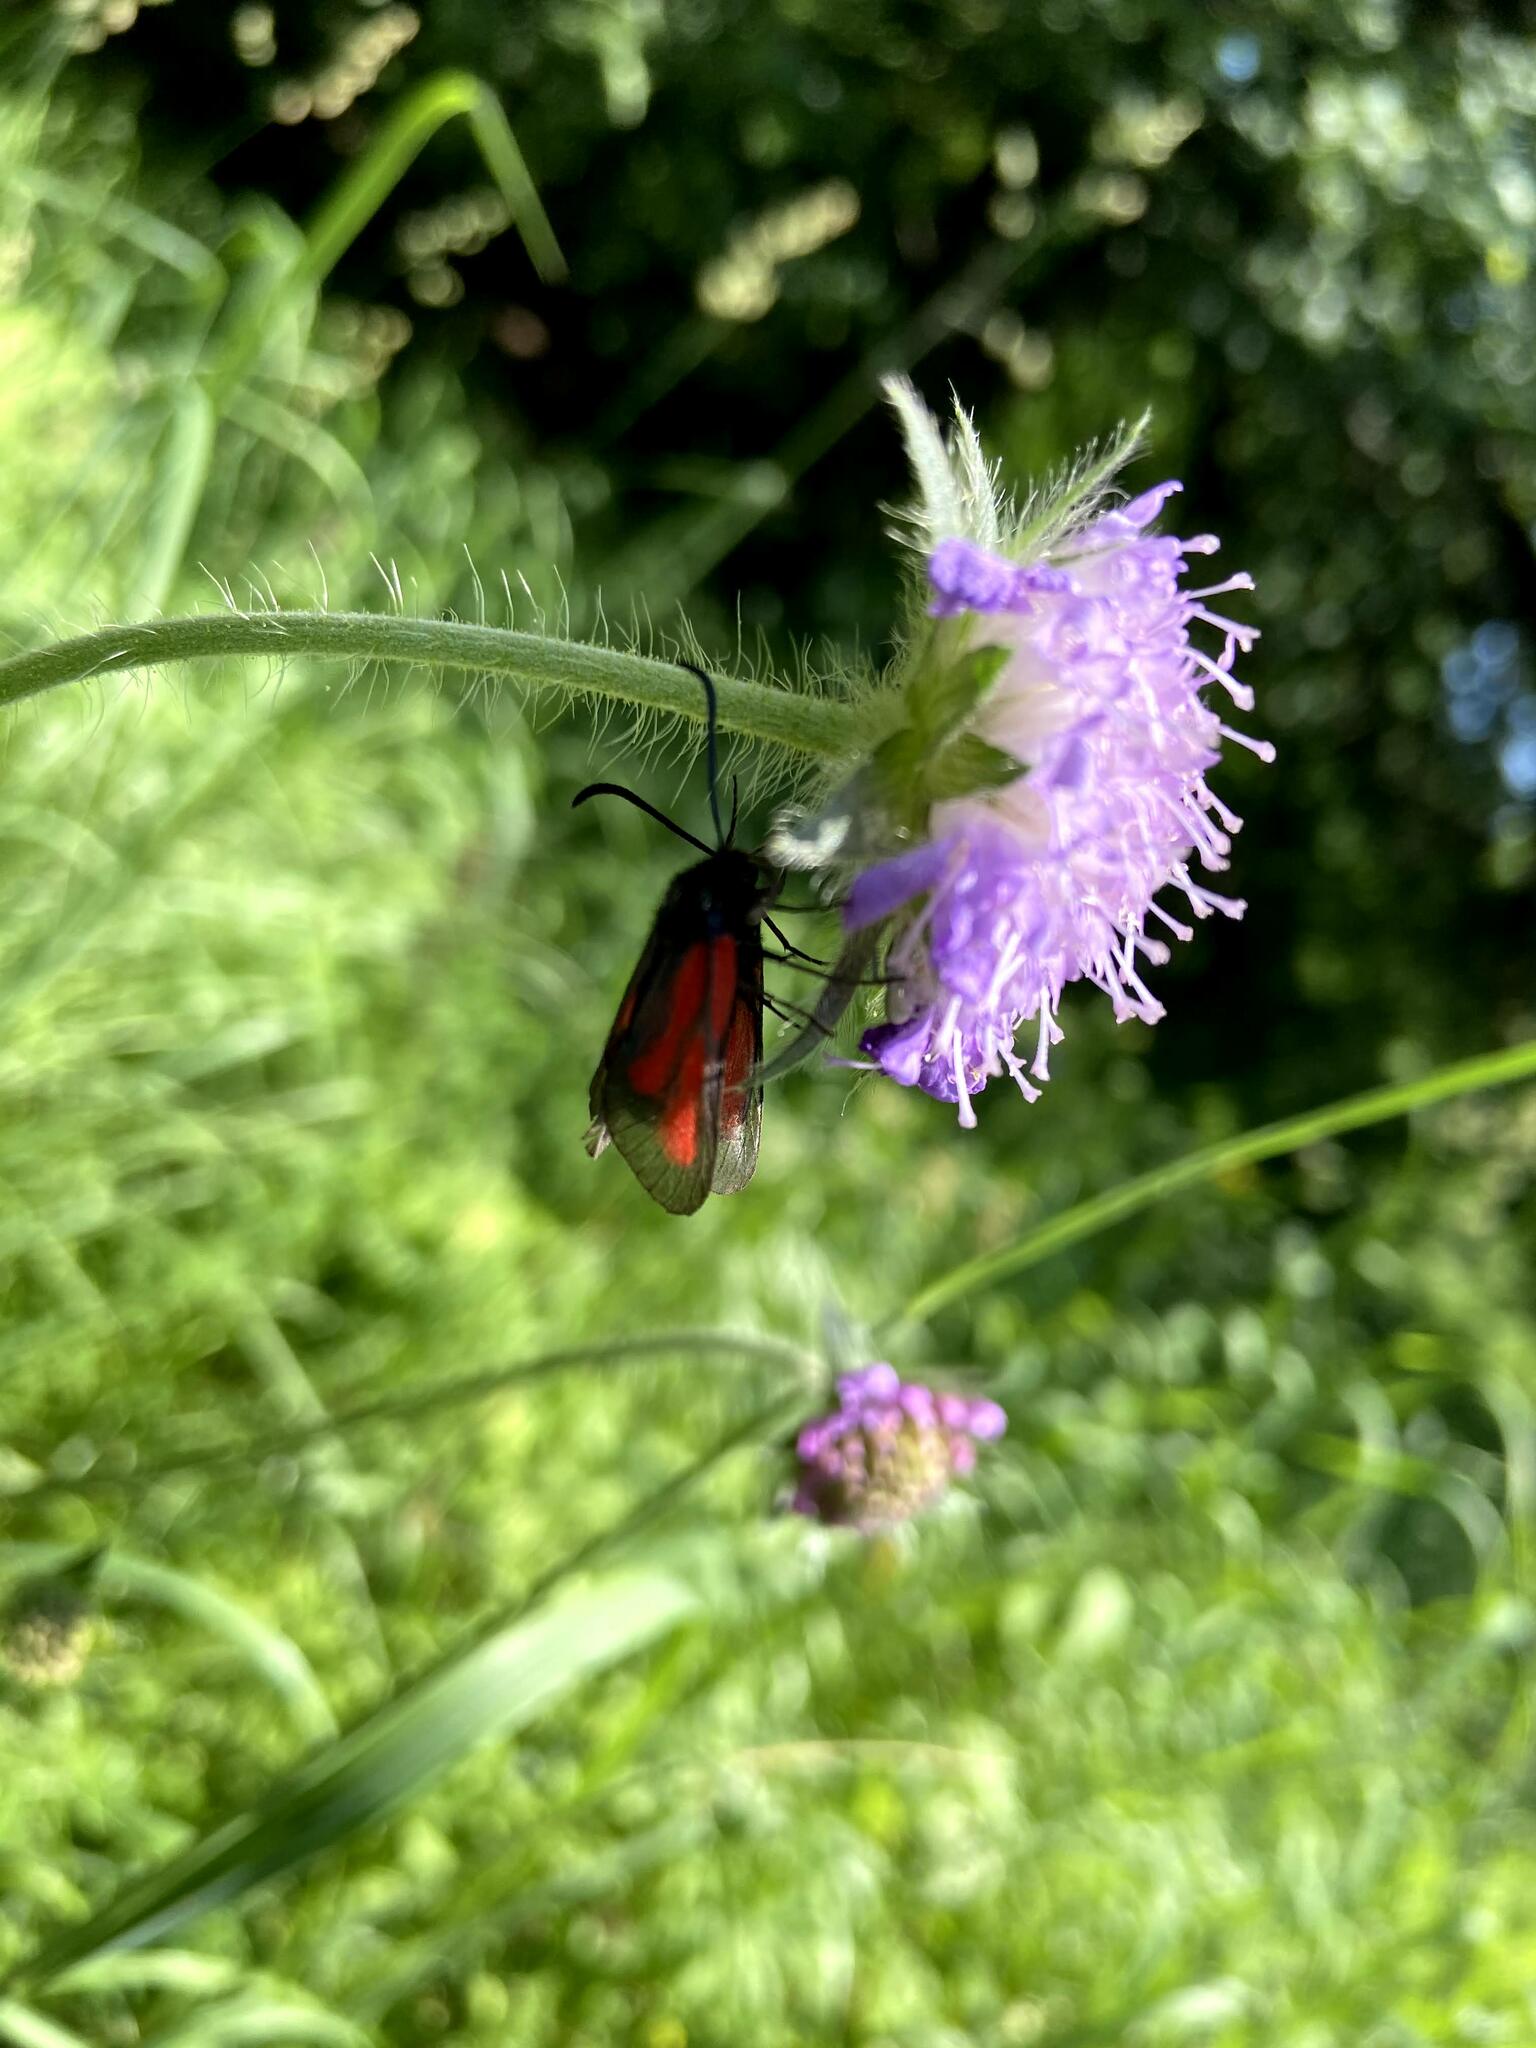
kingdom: Animalia
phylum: Arthropoda
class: Insecta
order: Lepidoptera
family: Zygaenidae
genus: Zygaena
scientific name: Zygaena osterodensis
